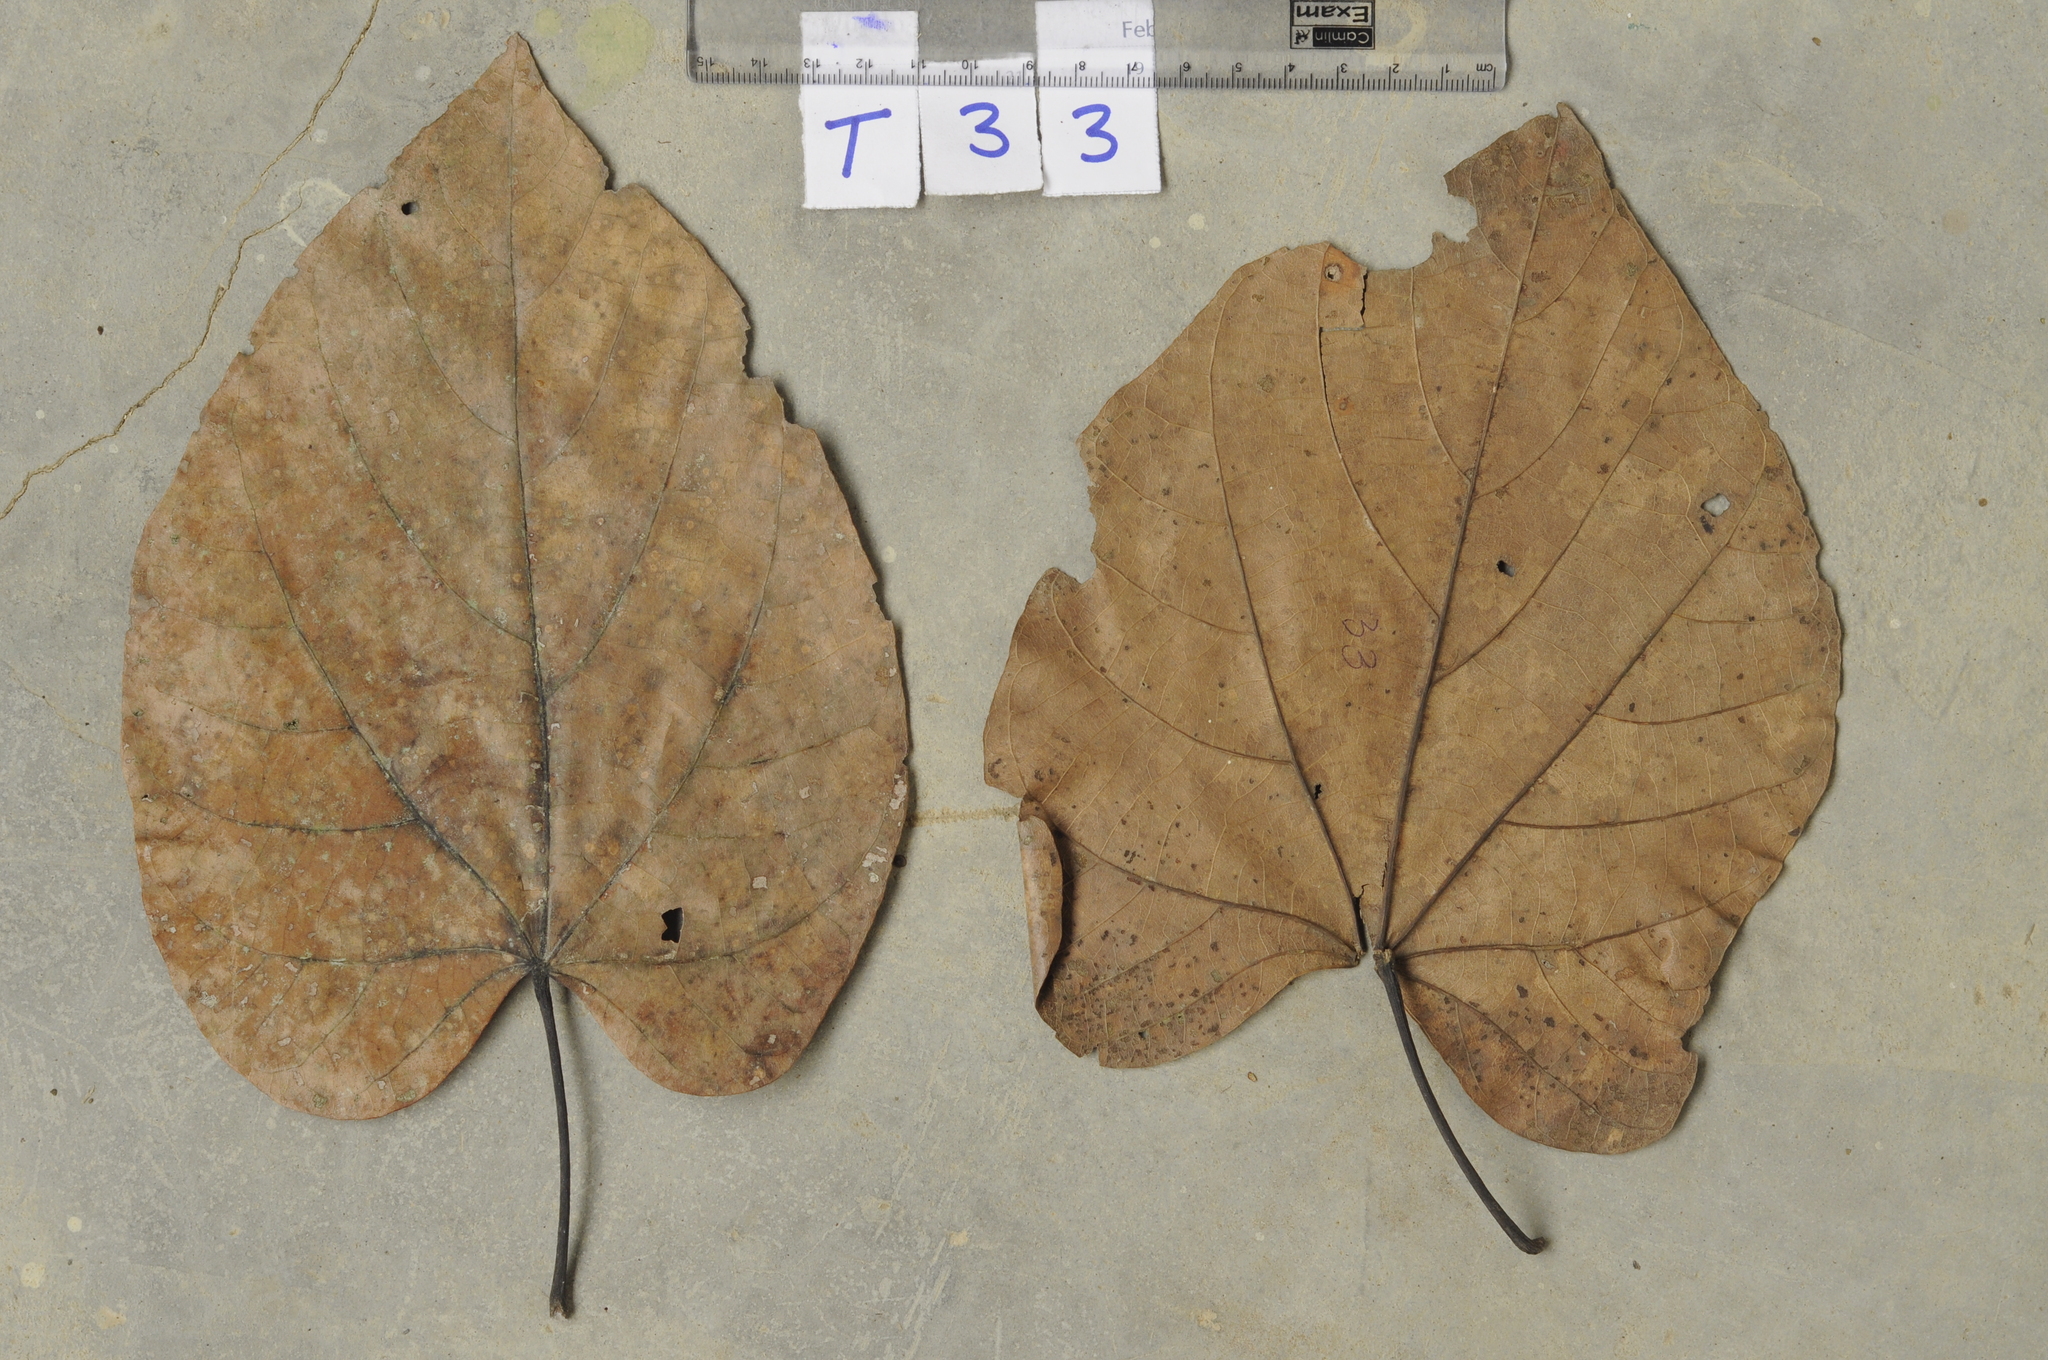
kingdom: Plantae
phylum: Tracheophyta
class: Magnoliopsida
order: Malvales
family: Malvaceae
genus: Pterygota
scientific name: Pterygota alata
